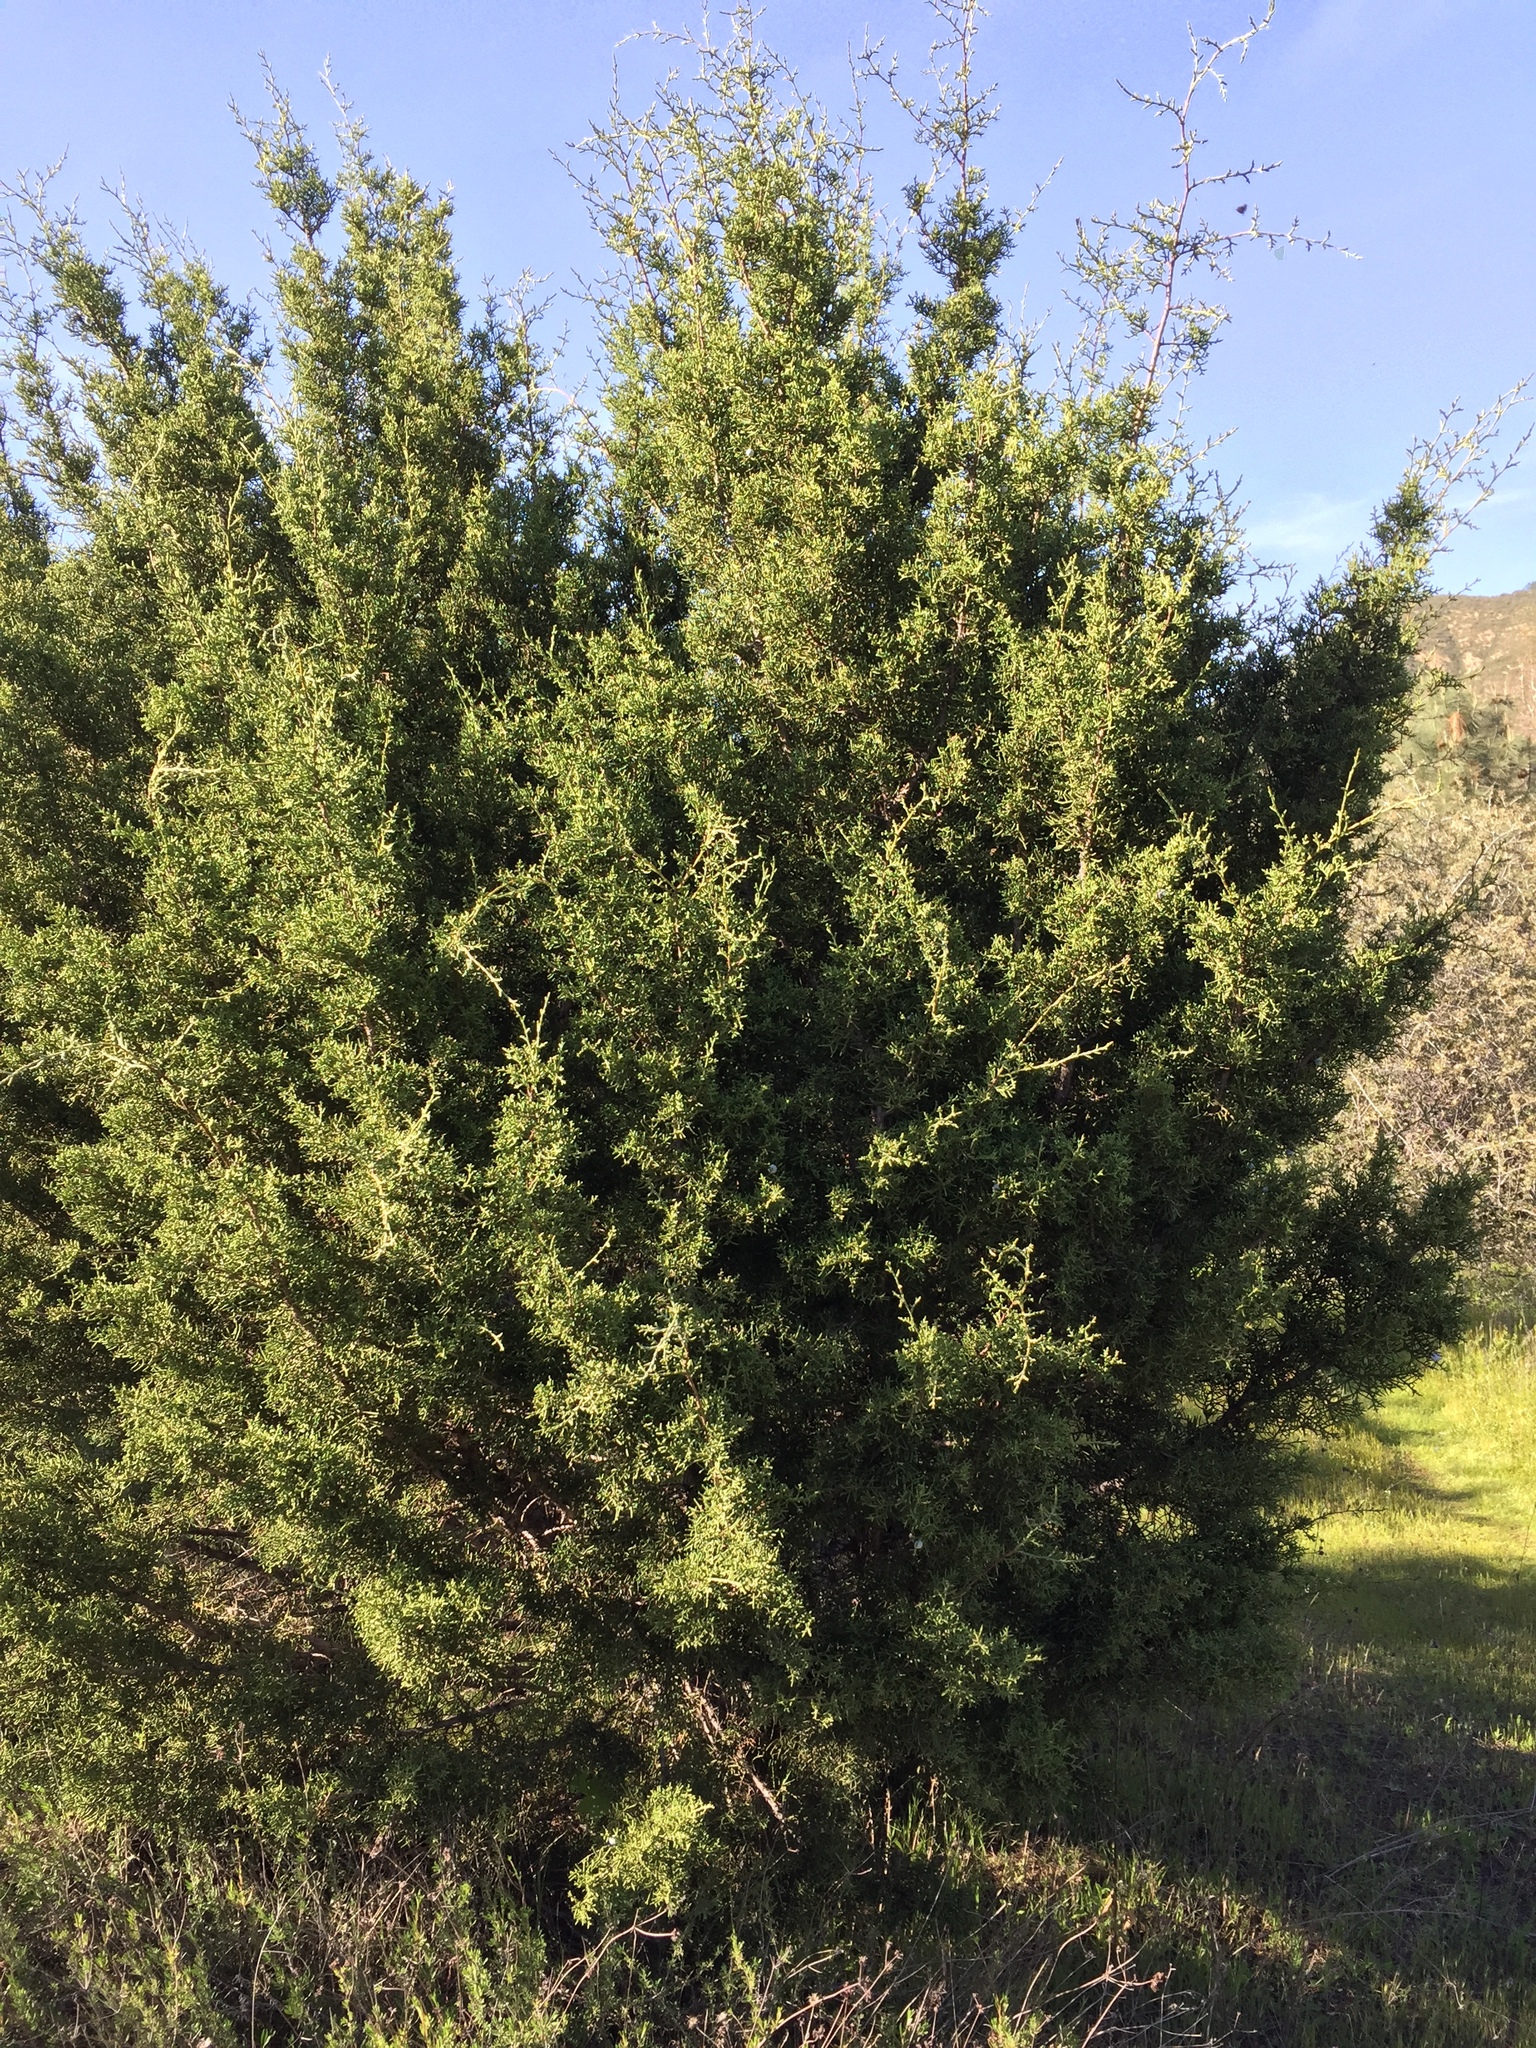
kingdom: Plantae
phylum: Tracheophyta
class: Pinopsida
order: Pinales
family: Cupressaceae
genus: Juniperus
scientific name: Juniperus californica
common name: California juniper
